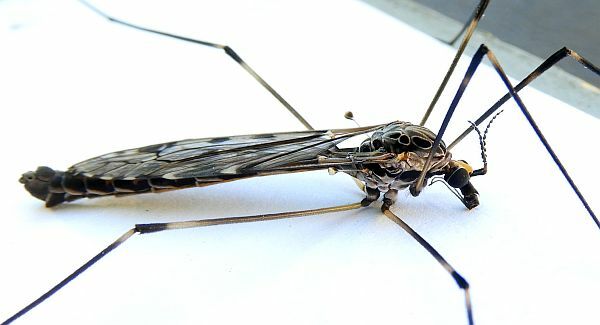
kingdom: Animalia
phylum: Arthropoda
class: Insecta
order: Diptera
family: Tipulidae
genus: Tipula
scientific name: Tipula abdominalis
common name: Giant crane fly
